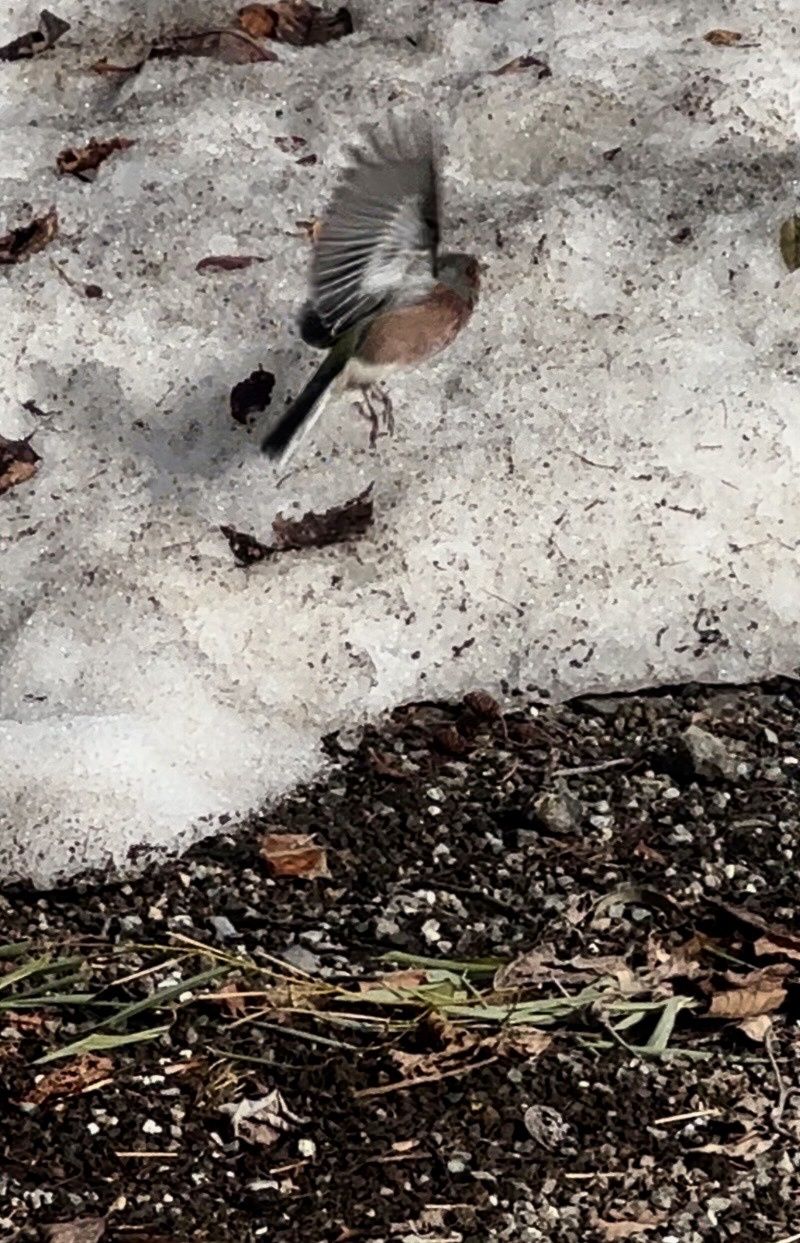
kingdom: Animalia
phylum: Chordata
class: Aves
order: Passeriformes
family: Fringillidae
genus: Fringilla
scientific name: Fringilla coelebs
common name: Common chaffinch
